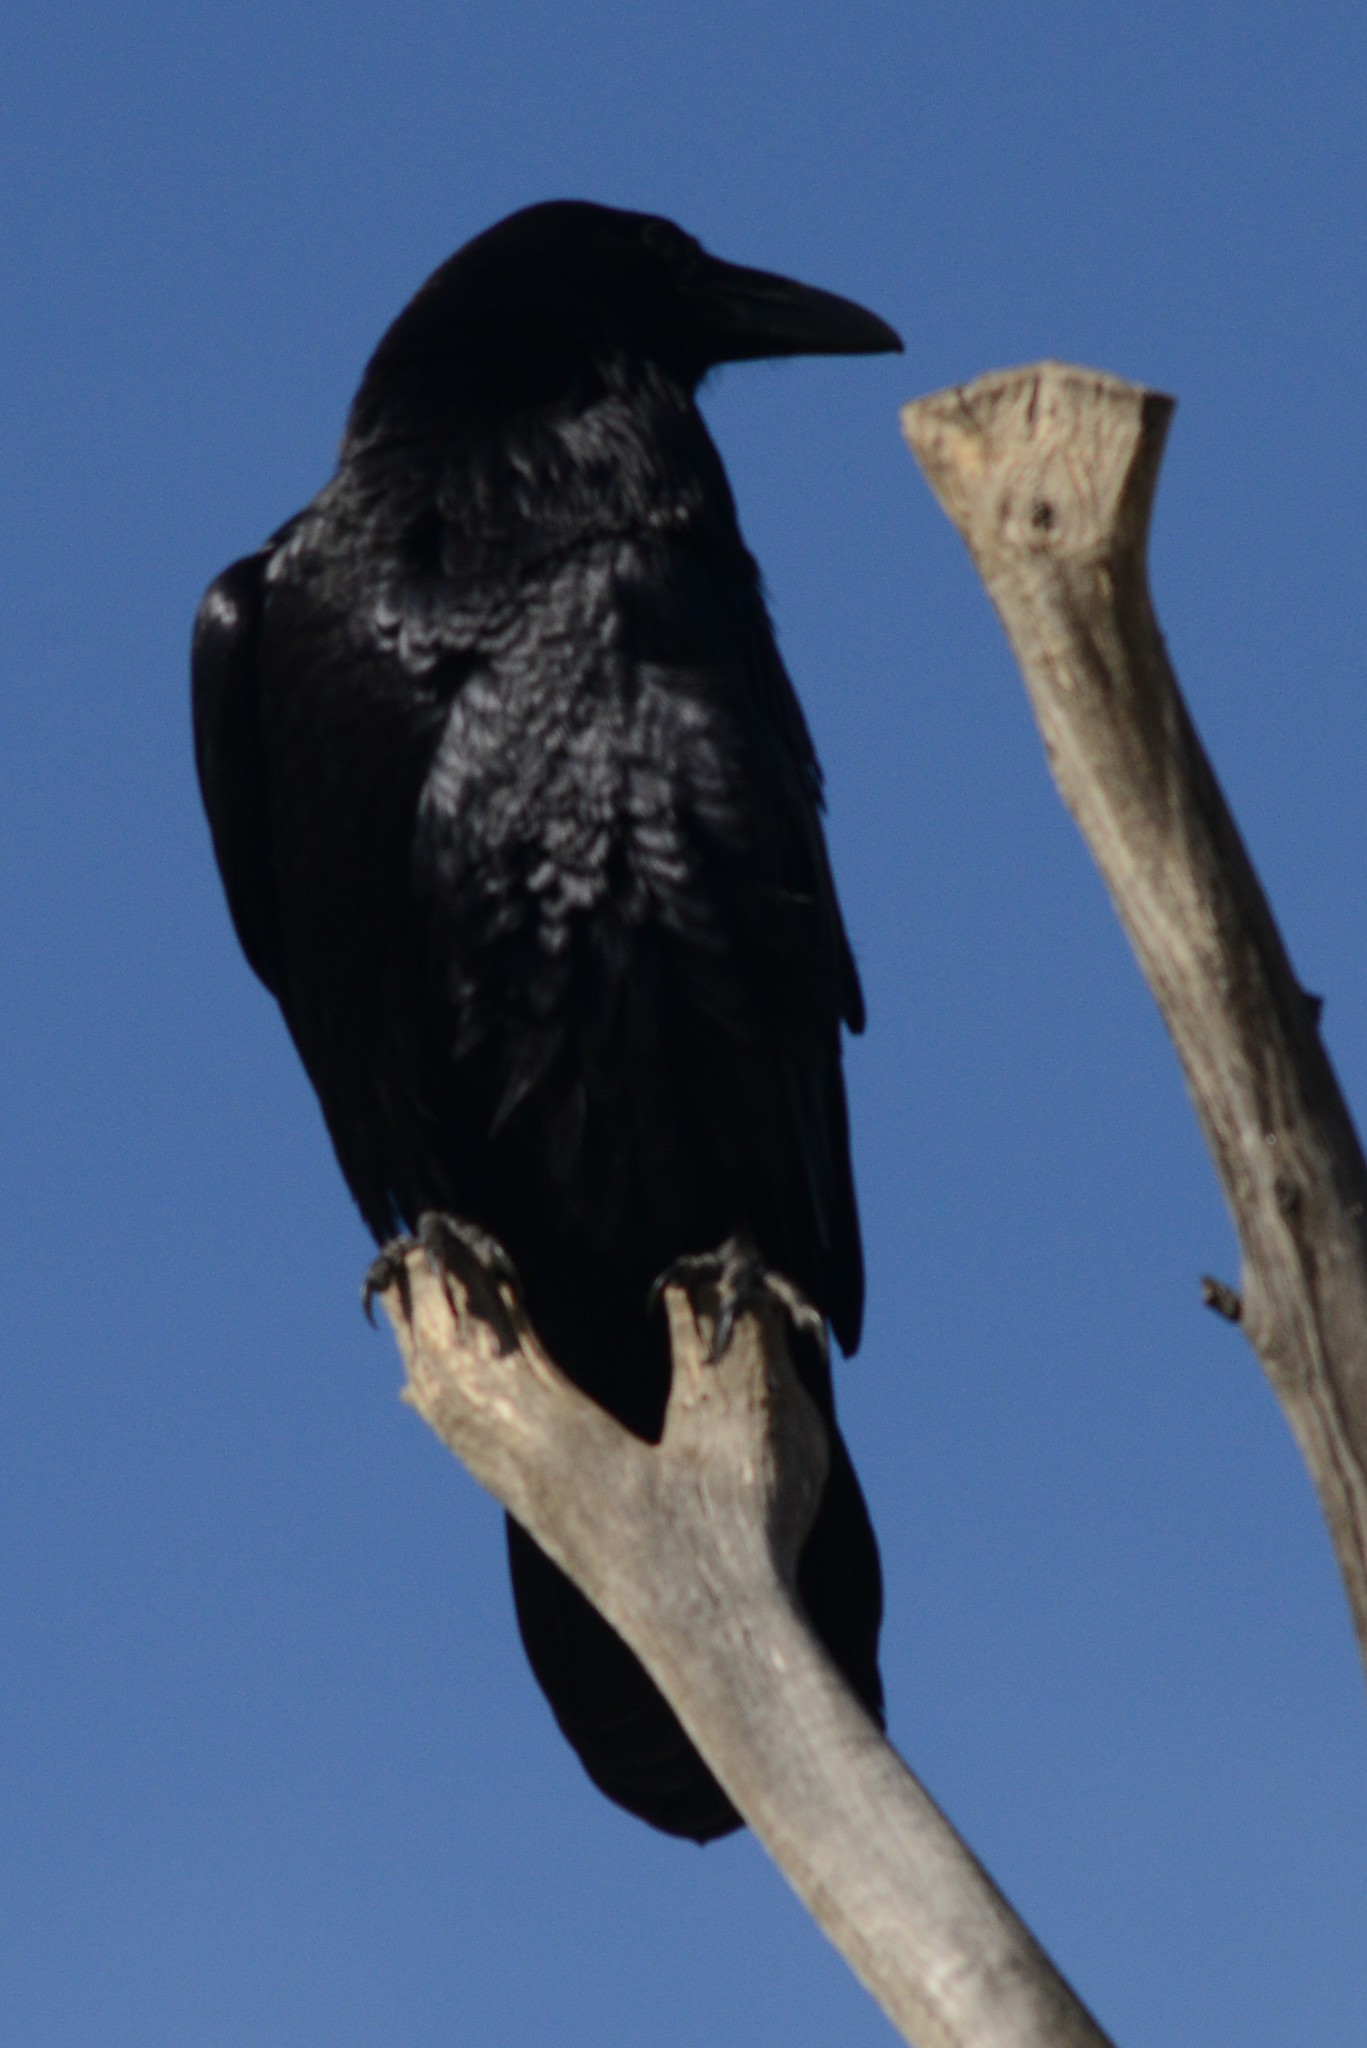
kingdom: Animalia
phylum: Chordata
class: Aves
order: Passeriformes
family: Corvidae
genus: Corvus
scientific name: Corvus corax
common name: Common raven
